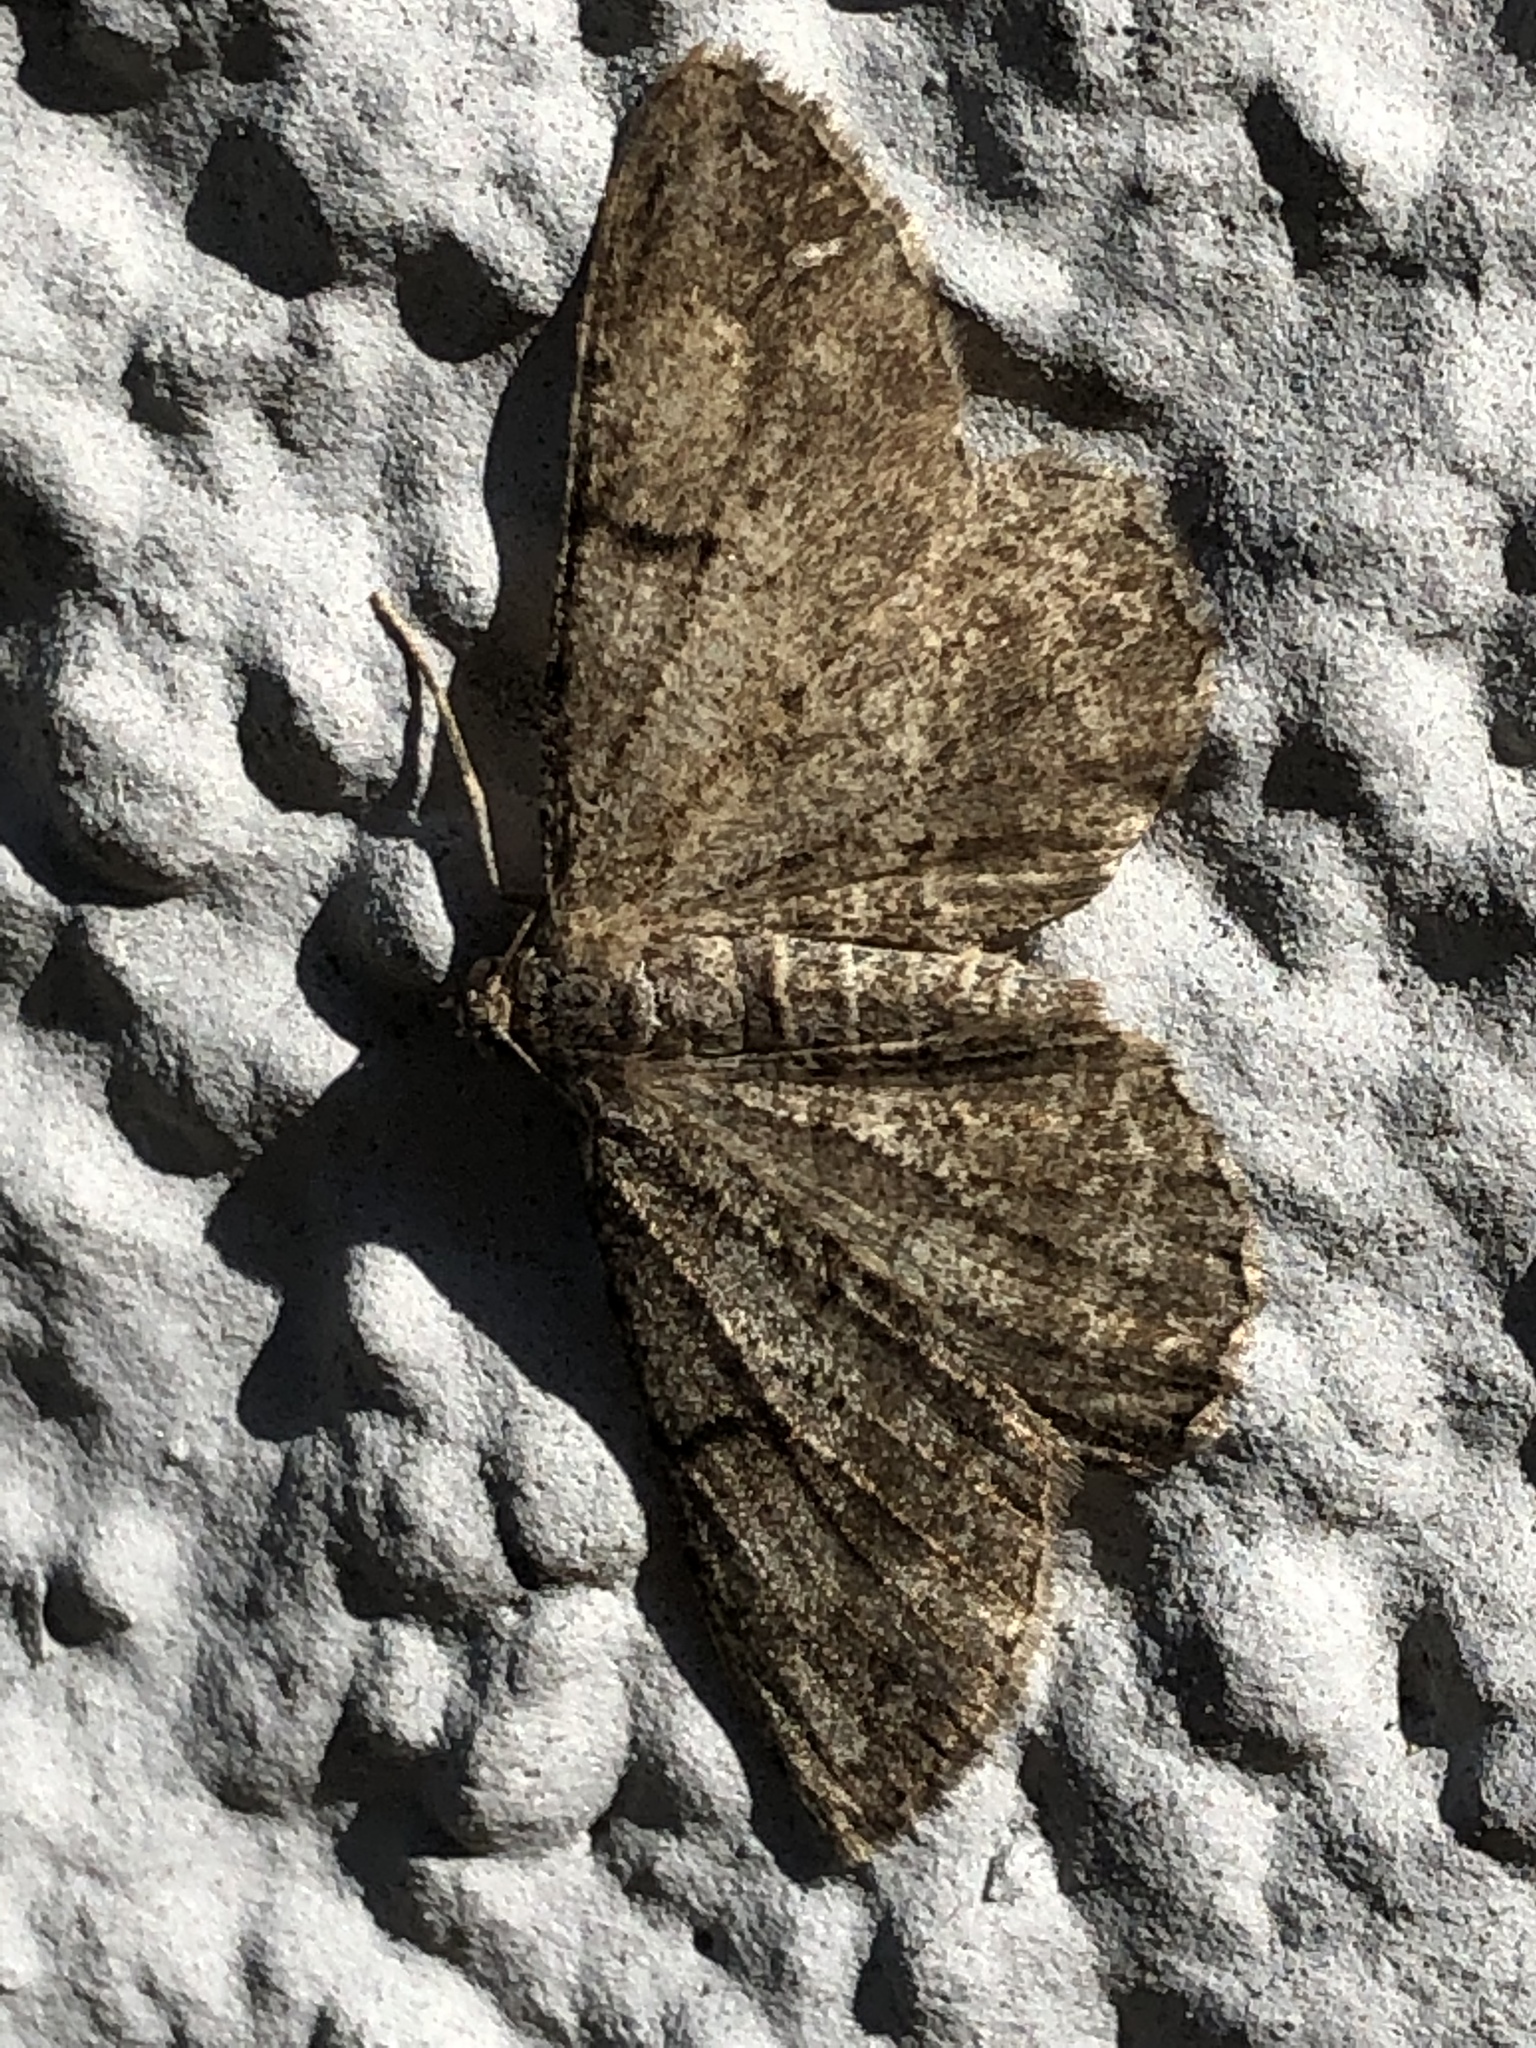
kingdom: Animalia
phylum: Arthropoda
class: Insecta
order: Lepidoptera
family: Geometridae
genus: Peribatodes
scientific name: Peribatodes rhomboidaria
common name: Willow beauty
